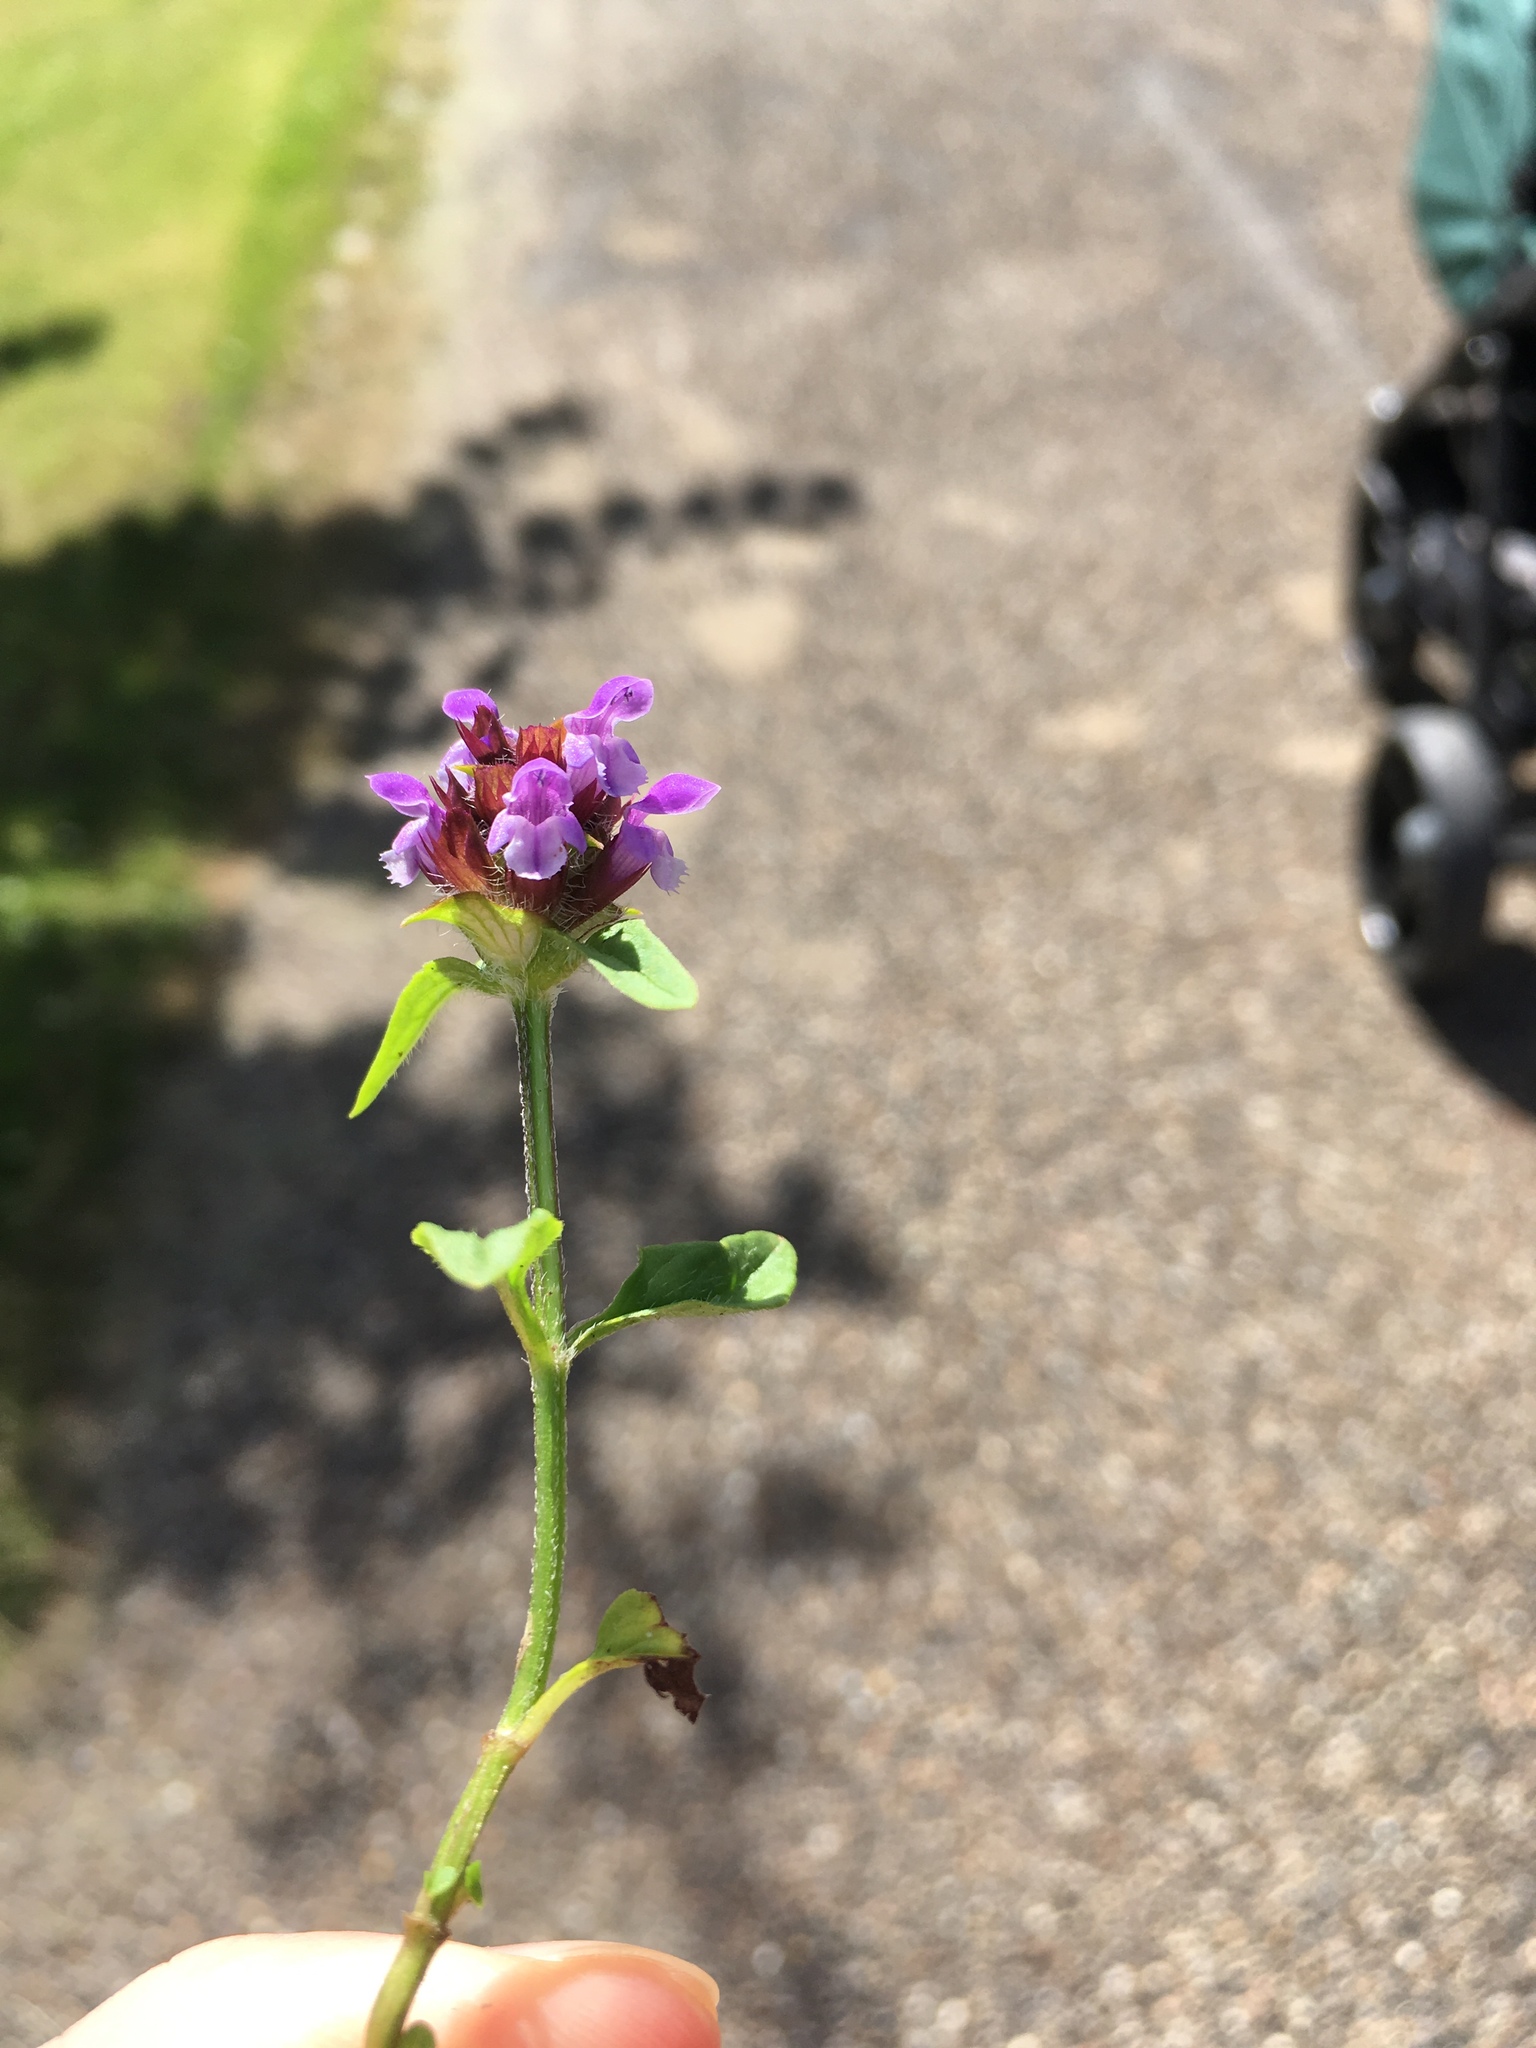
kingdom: Plantae
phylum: Tracheophyta
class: Magnoliopsida
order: Lamiales
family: Lamiaceae
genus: Prunella
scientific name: Prunella vulgaris
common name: Heal-all
